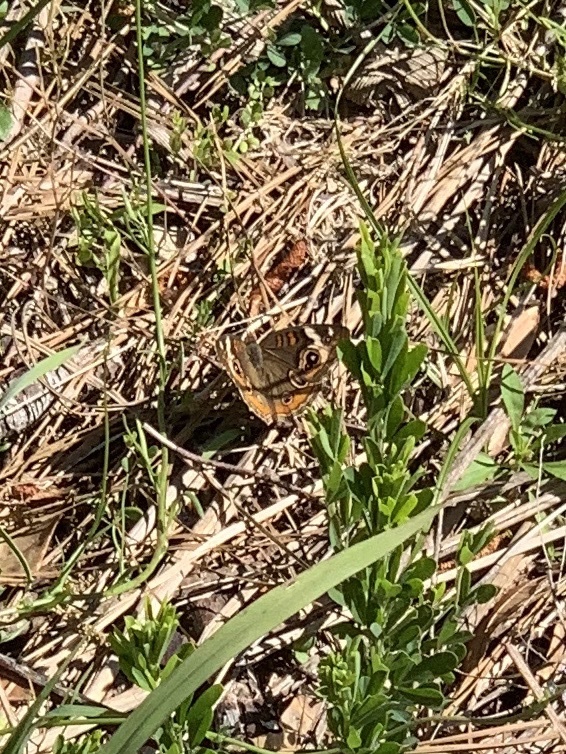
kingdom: Animalia
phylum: Arthropoda
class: Insecta
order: Lepidoptera
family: Nymphalidae
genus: Junonia
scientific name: Junonia coenia
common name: Common buckeye
